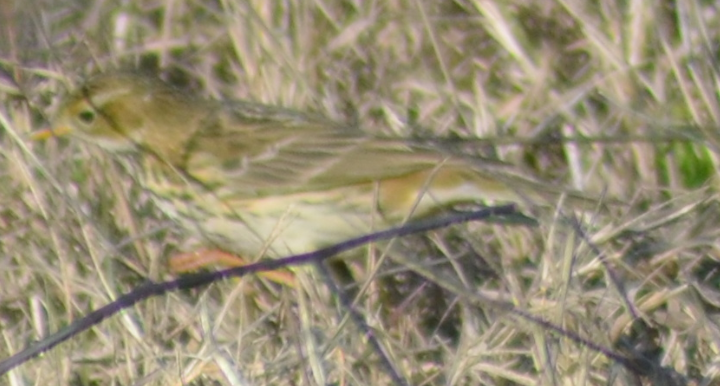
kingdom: Animalia
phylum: Chordata
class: Aves
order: Passeriformes
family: Motacillidae
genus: Anthus
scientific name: Anthus pratensis
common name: Meadow pipit
